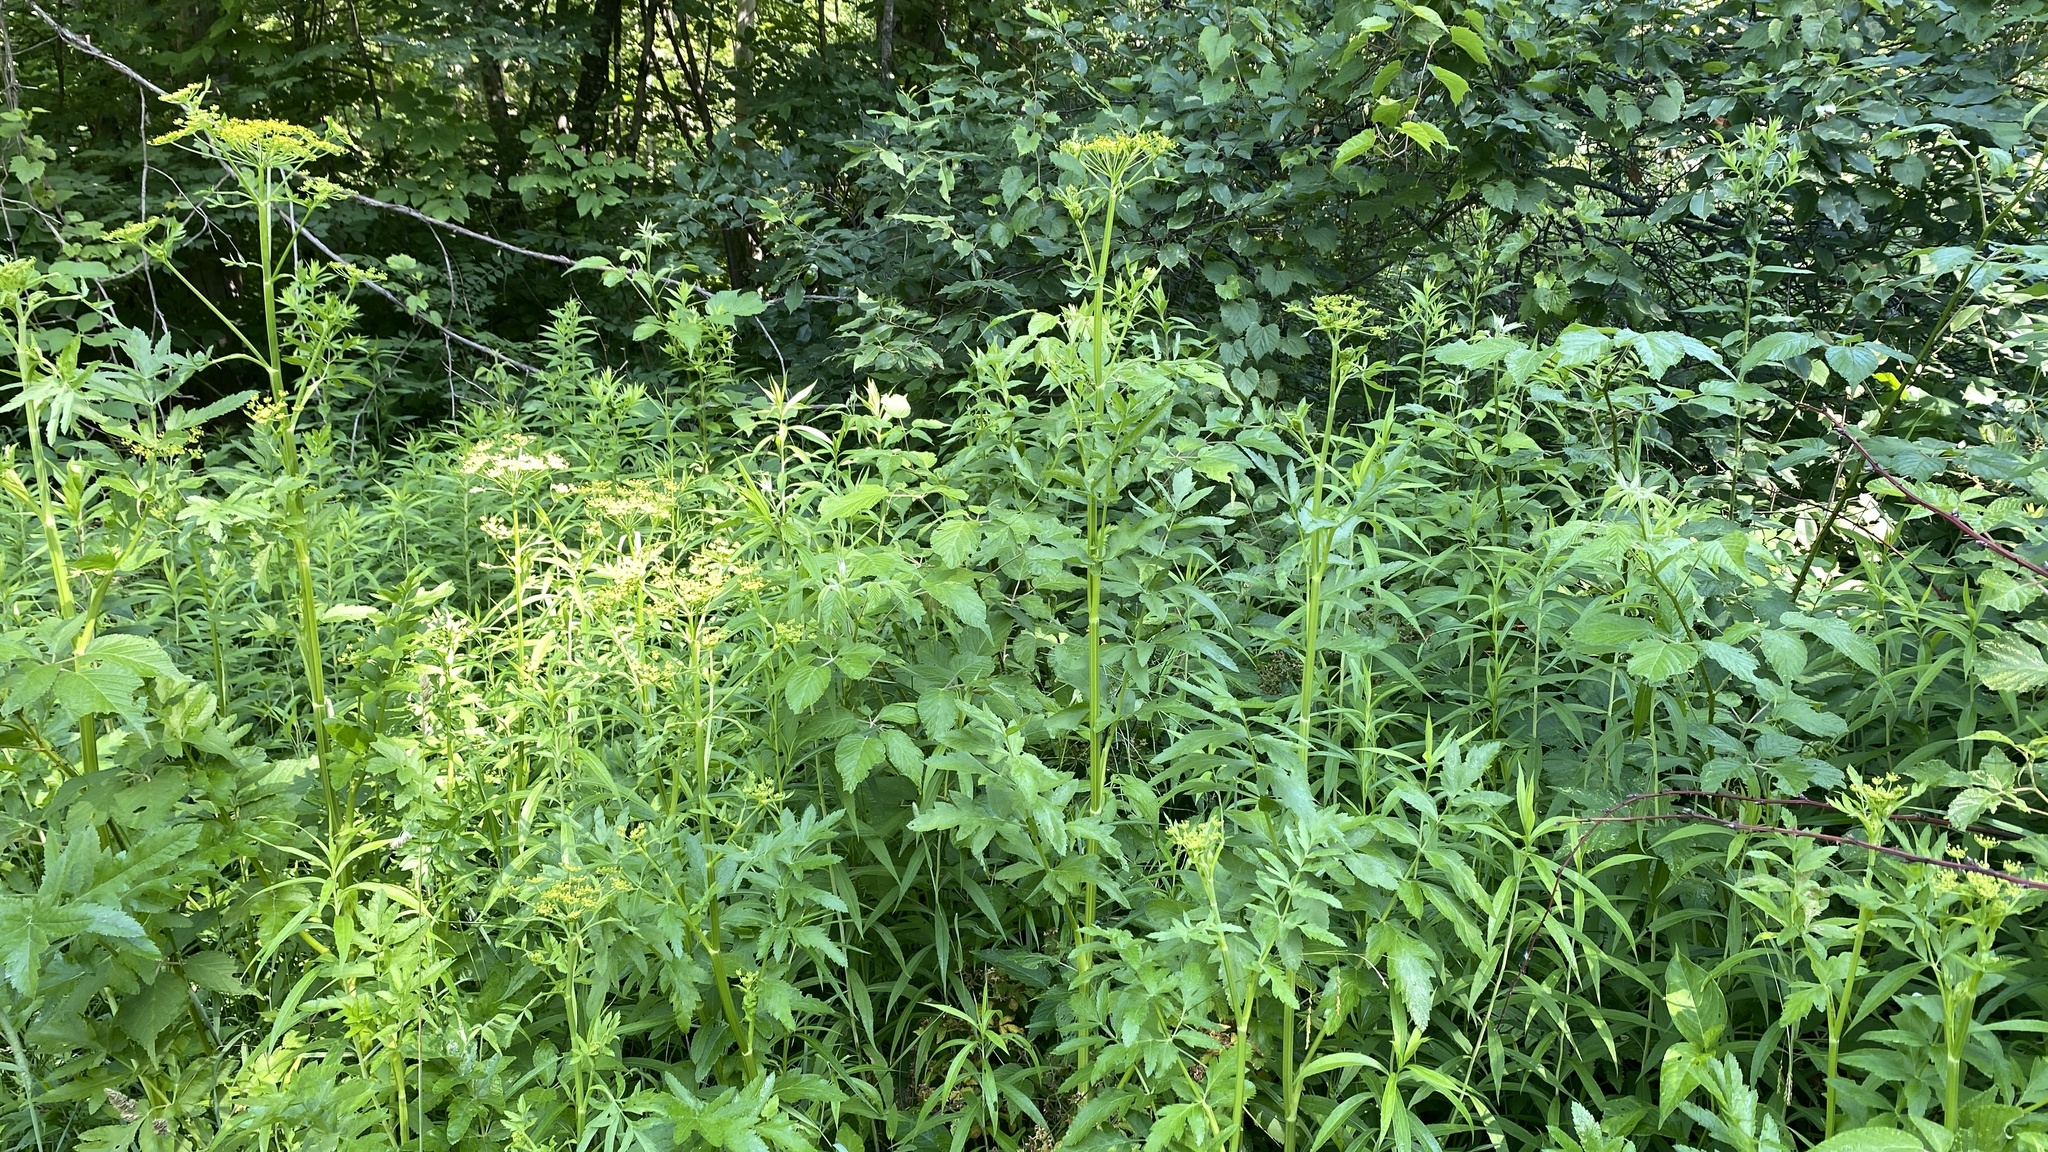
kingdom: Plantae
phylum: Tracheophyta
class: Magnoliopsida
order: Apiales
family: Apiaceae
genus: Pastinaca
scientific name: Pastinaca sativa
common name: Wild parsnip
